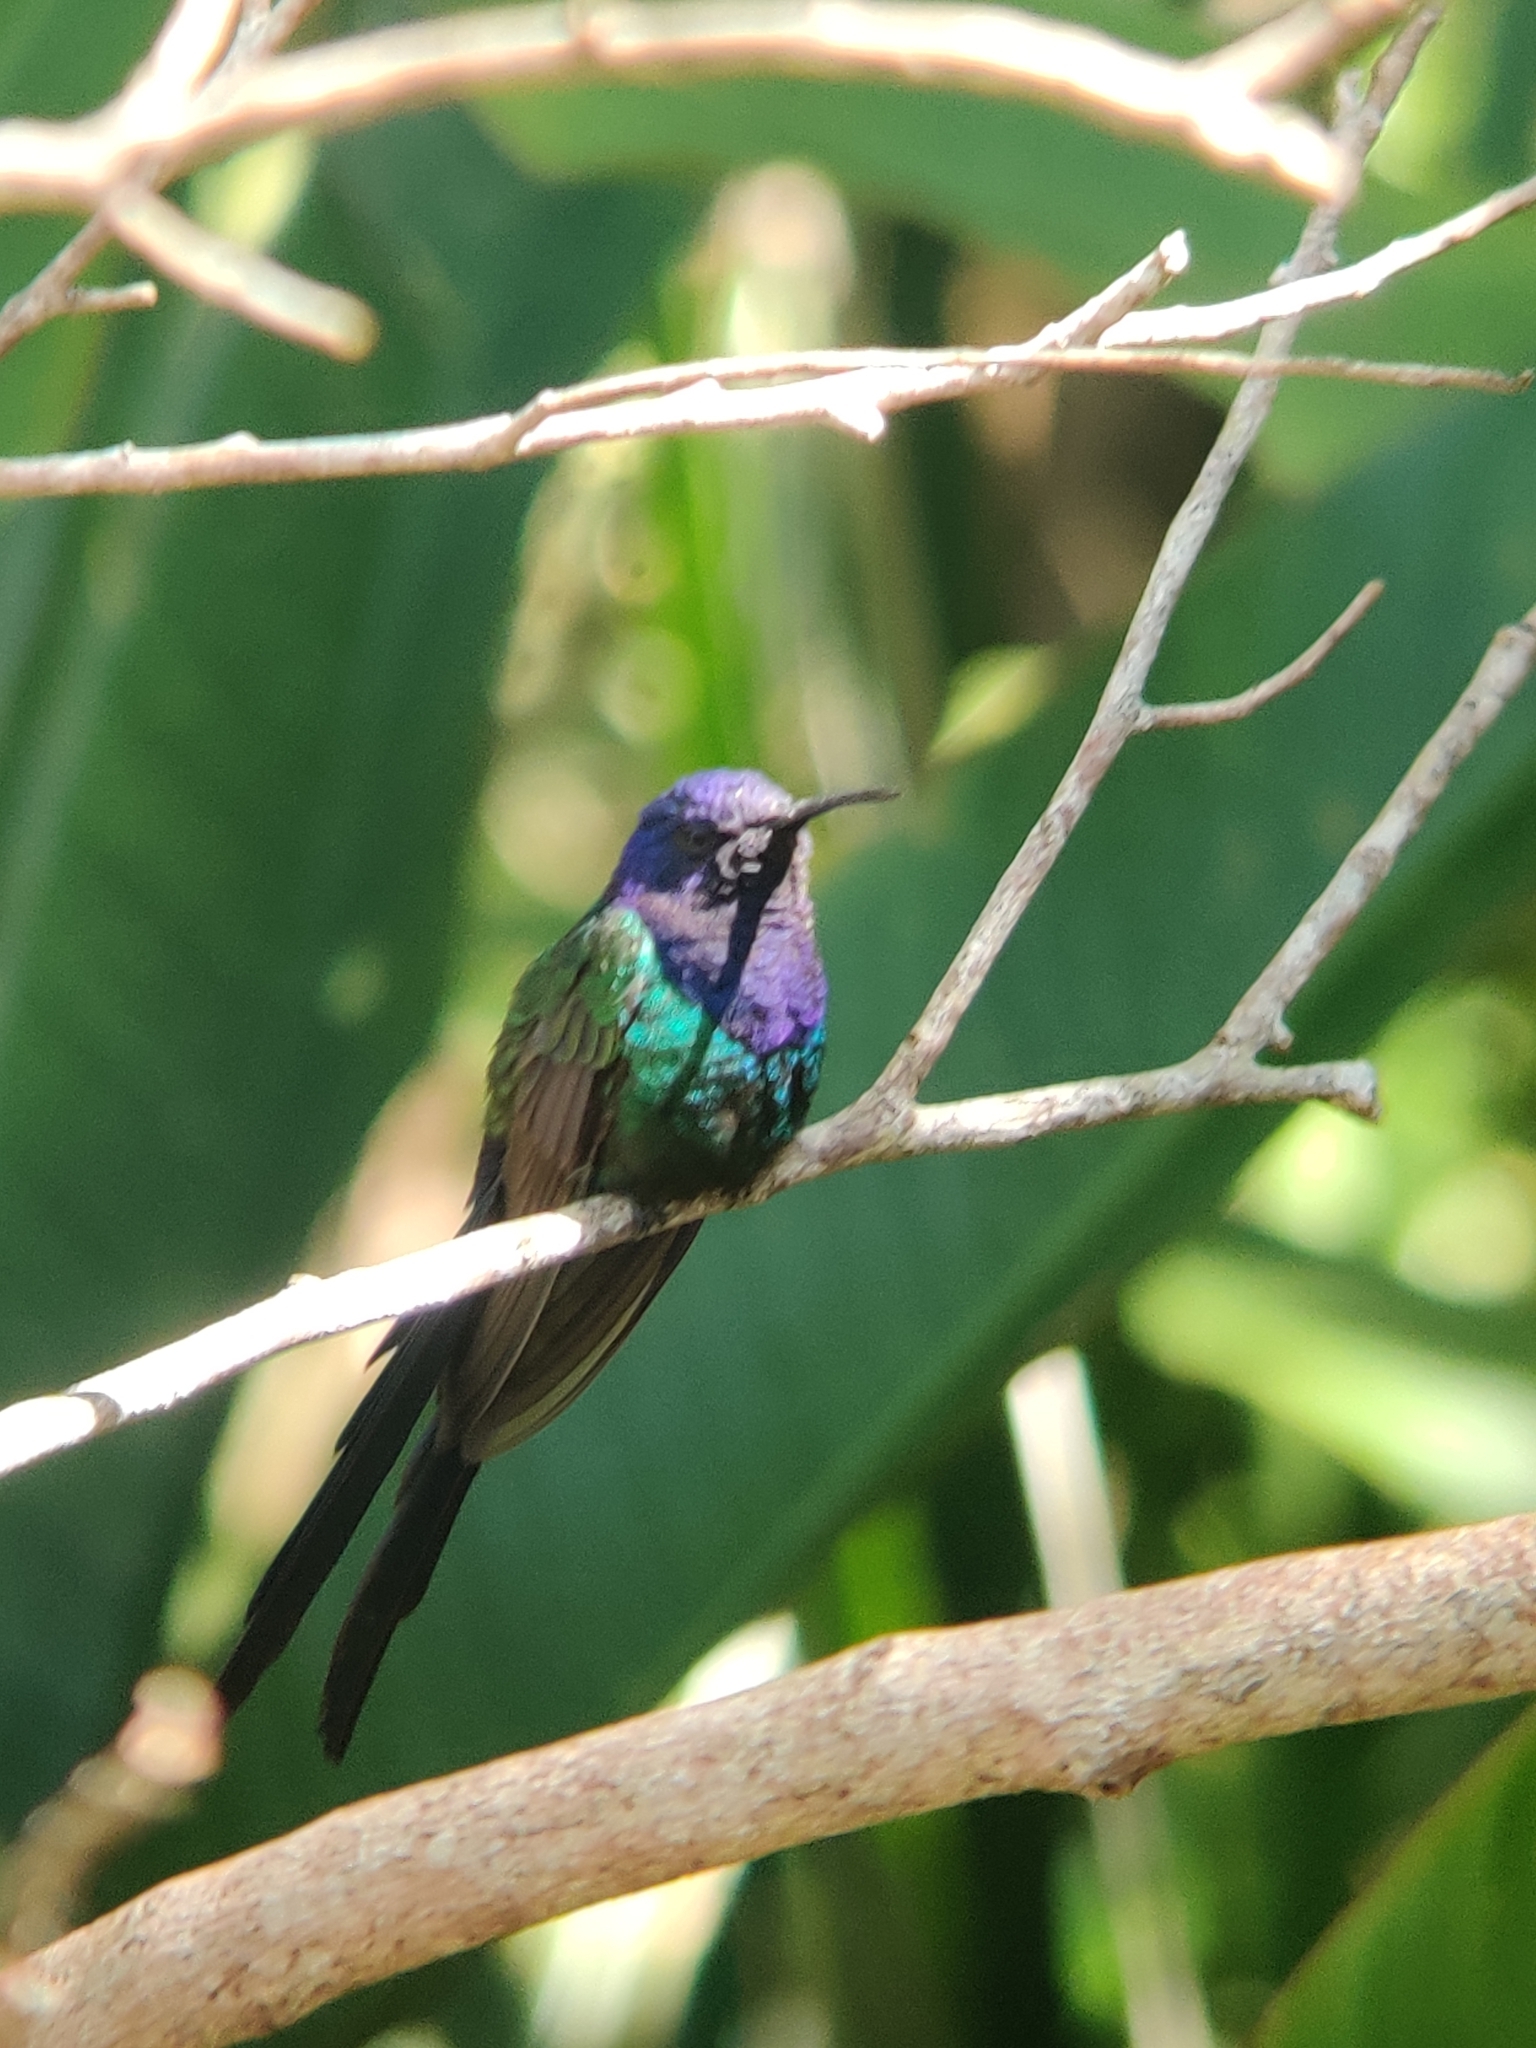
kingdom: Animalia
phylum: Chordata
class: Aves
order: Apodiformes
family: Trochilidae
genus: Eupetomena
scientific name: Eupetomena macroura
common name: Swallow-tailed hummingbird
